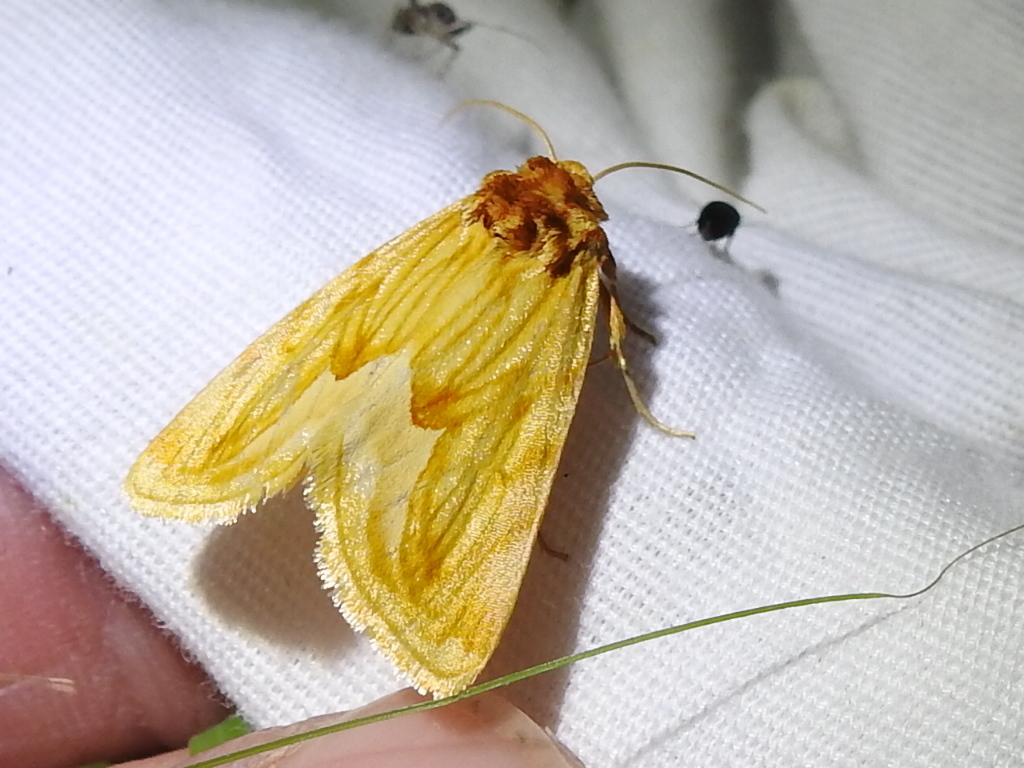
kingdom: Animalia
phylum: Arthropoda
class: Insecta
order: Lepidoptera
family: Noctuidae
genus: Cirrhophanus
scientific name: Cirrhophanus dyari
